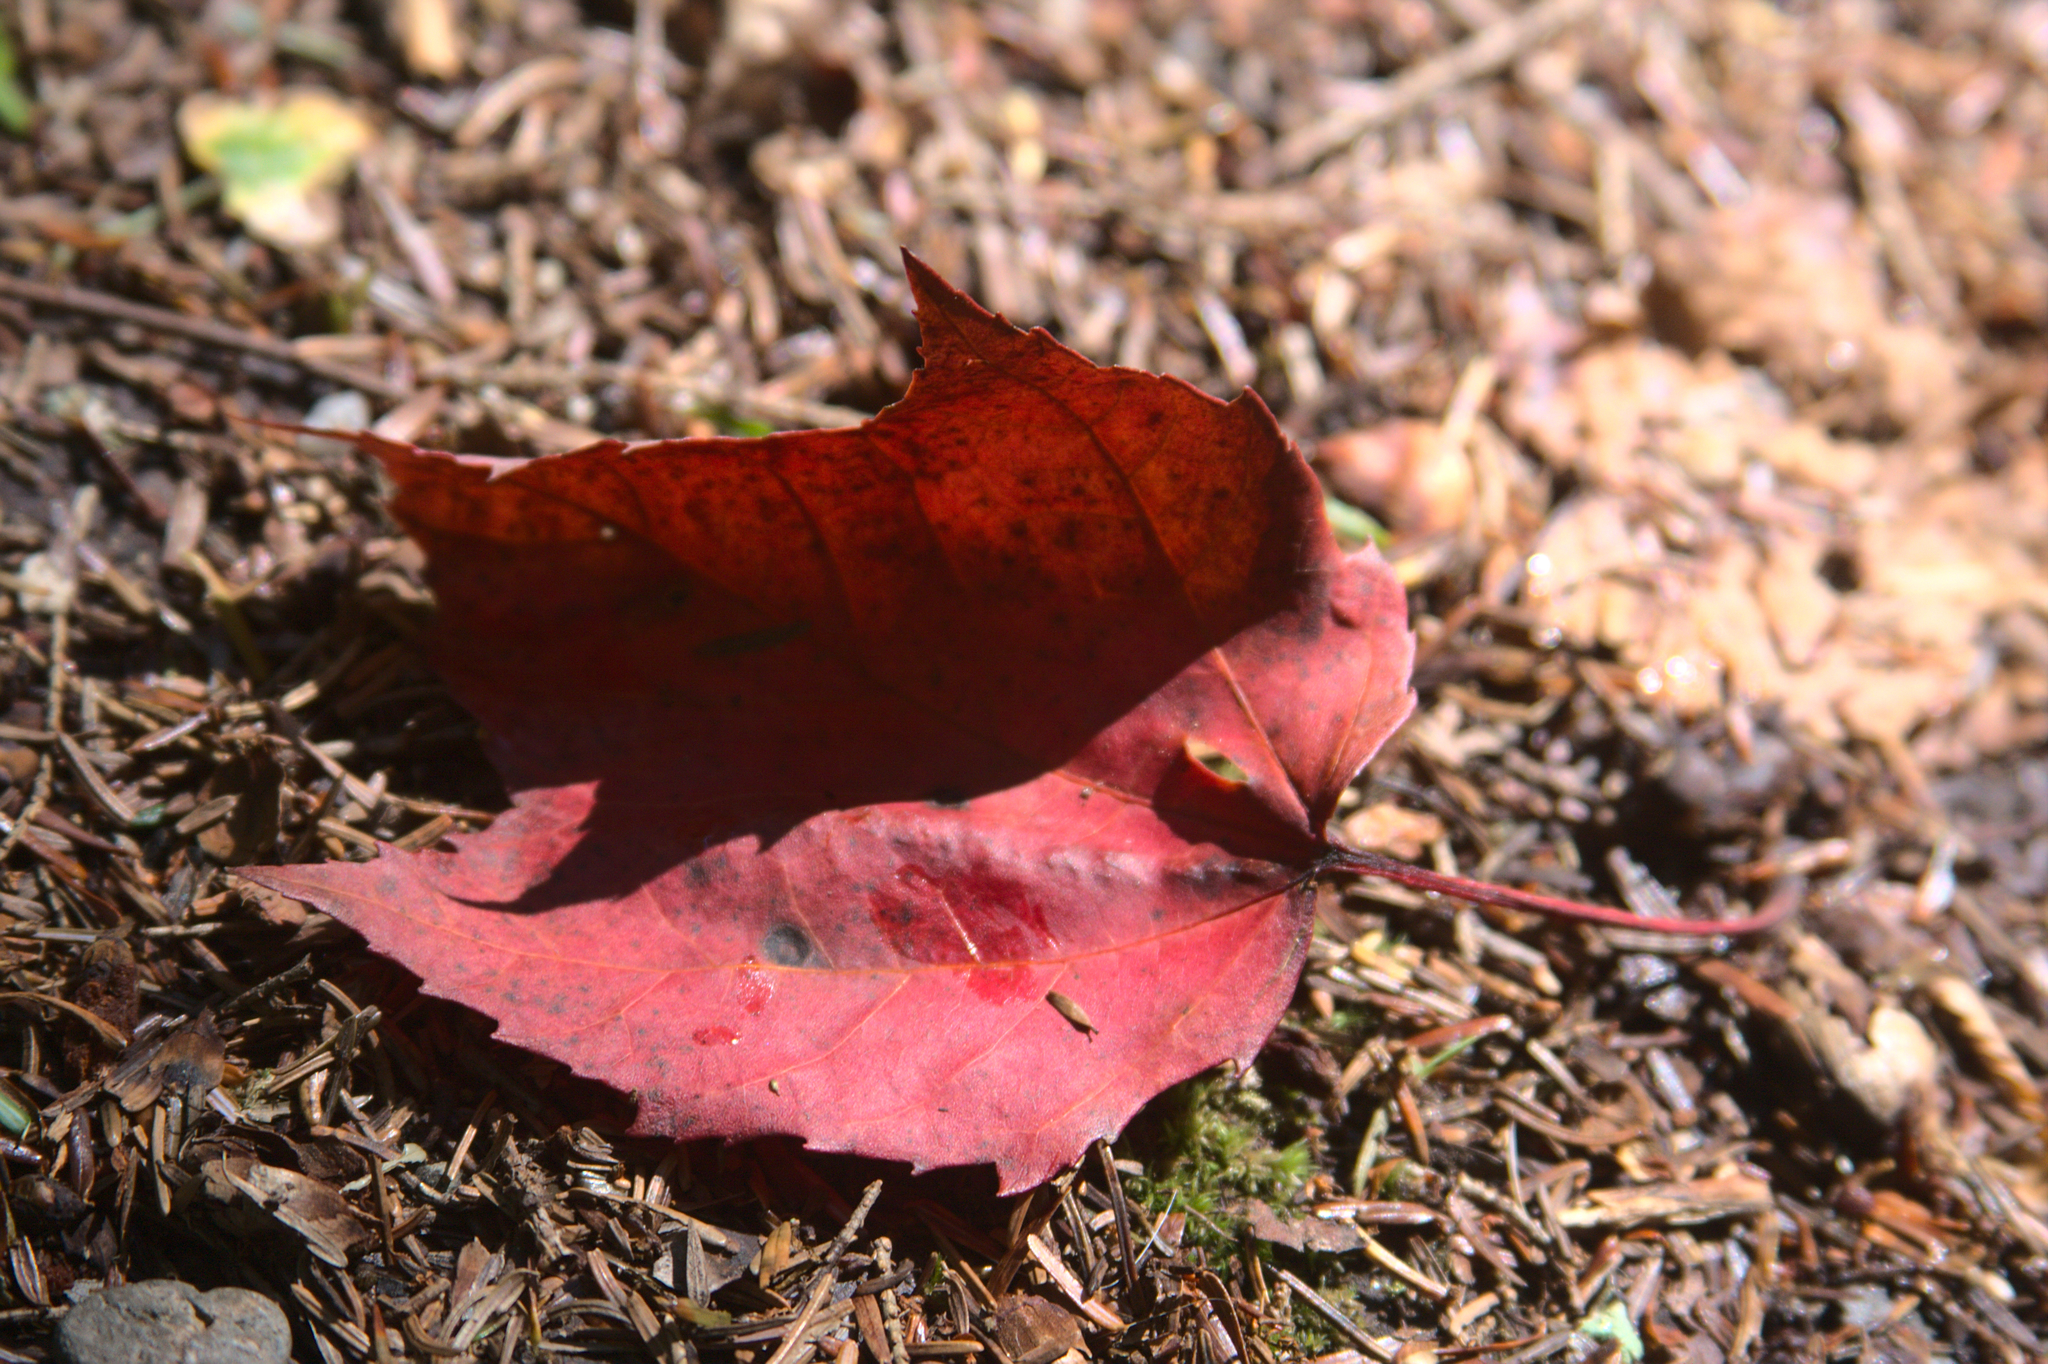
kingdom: Plantae
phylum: Tracheophyta
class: Magnoliopsida
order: Sapindales
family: Sapindaceae
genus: Acer
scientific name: Acer rubrum
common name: Red maple
